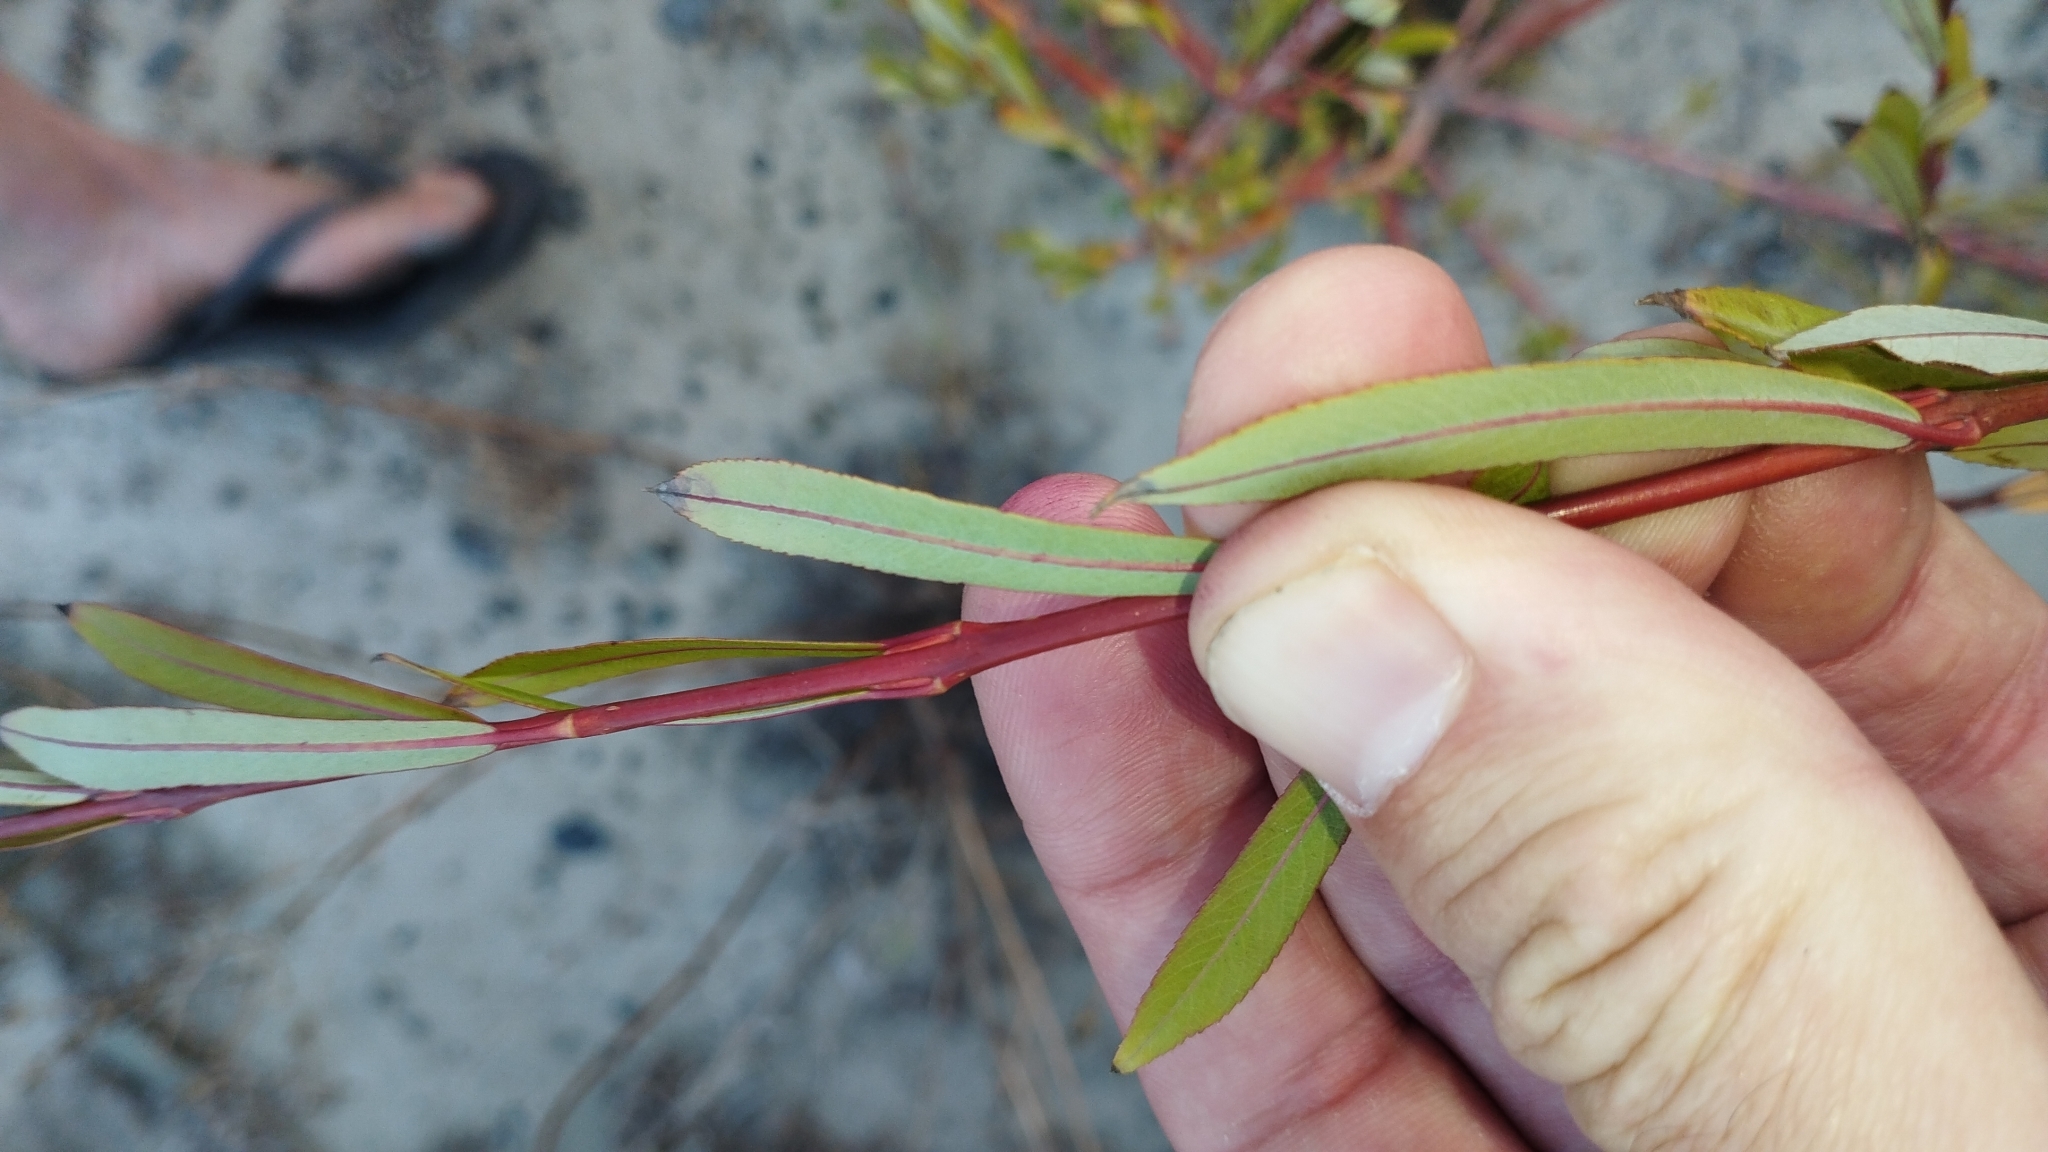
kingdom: Plantae
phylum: Tracheophyta
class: Magnoliopsida
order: Malpighiales
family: Salicaceae
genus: Salix
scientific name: Salix purpurea
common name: Purple willow
